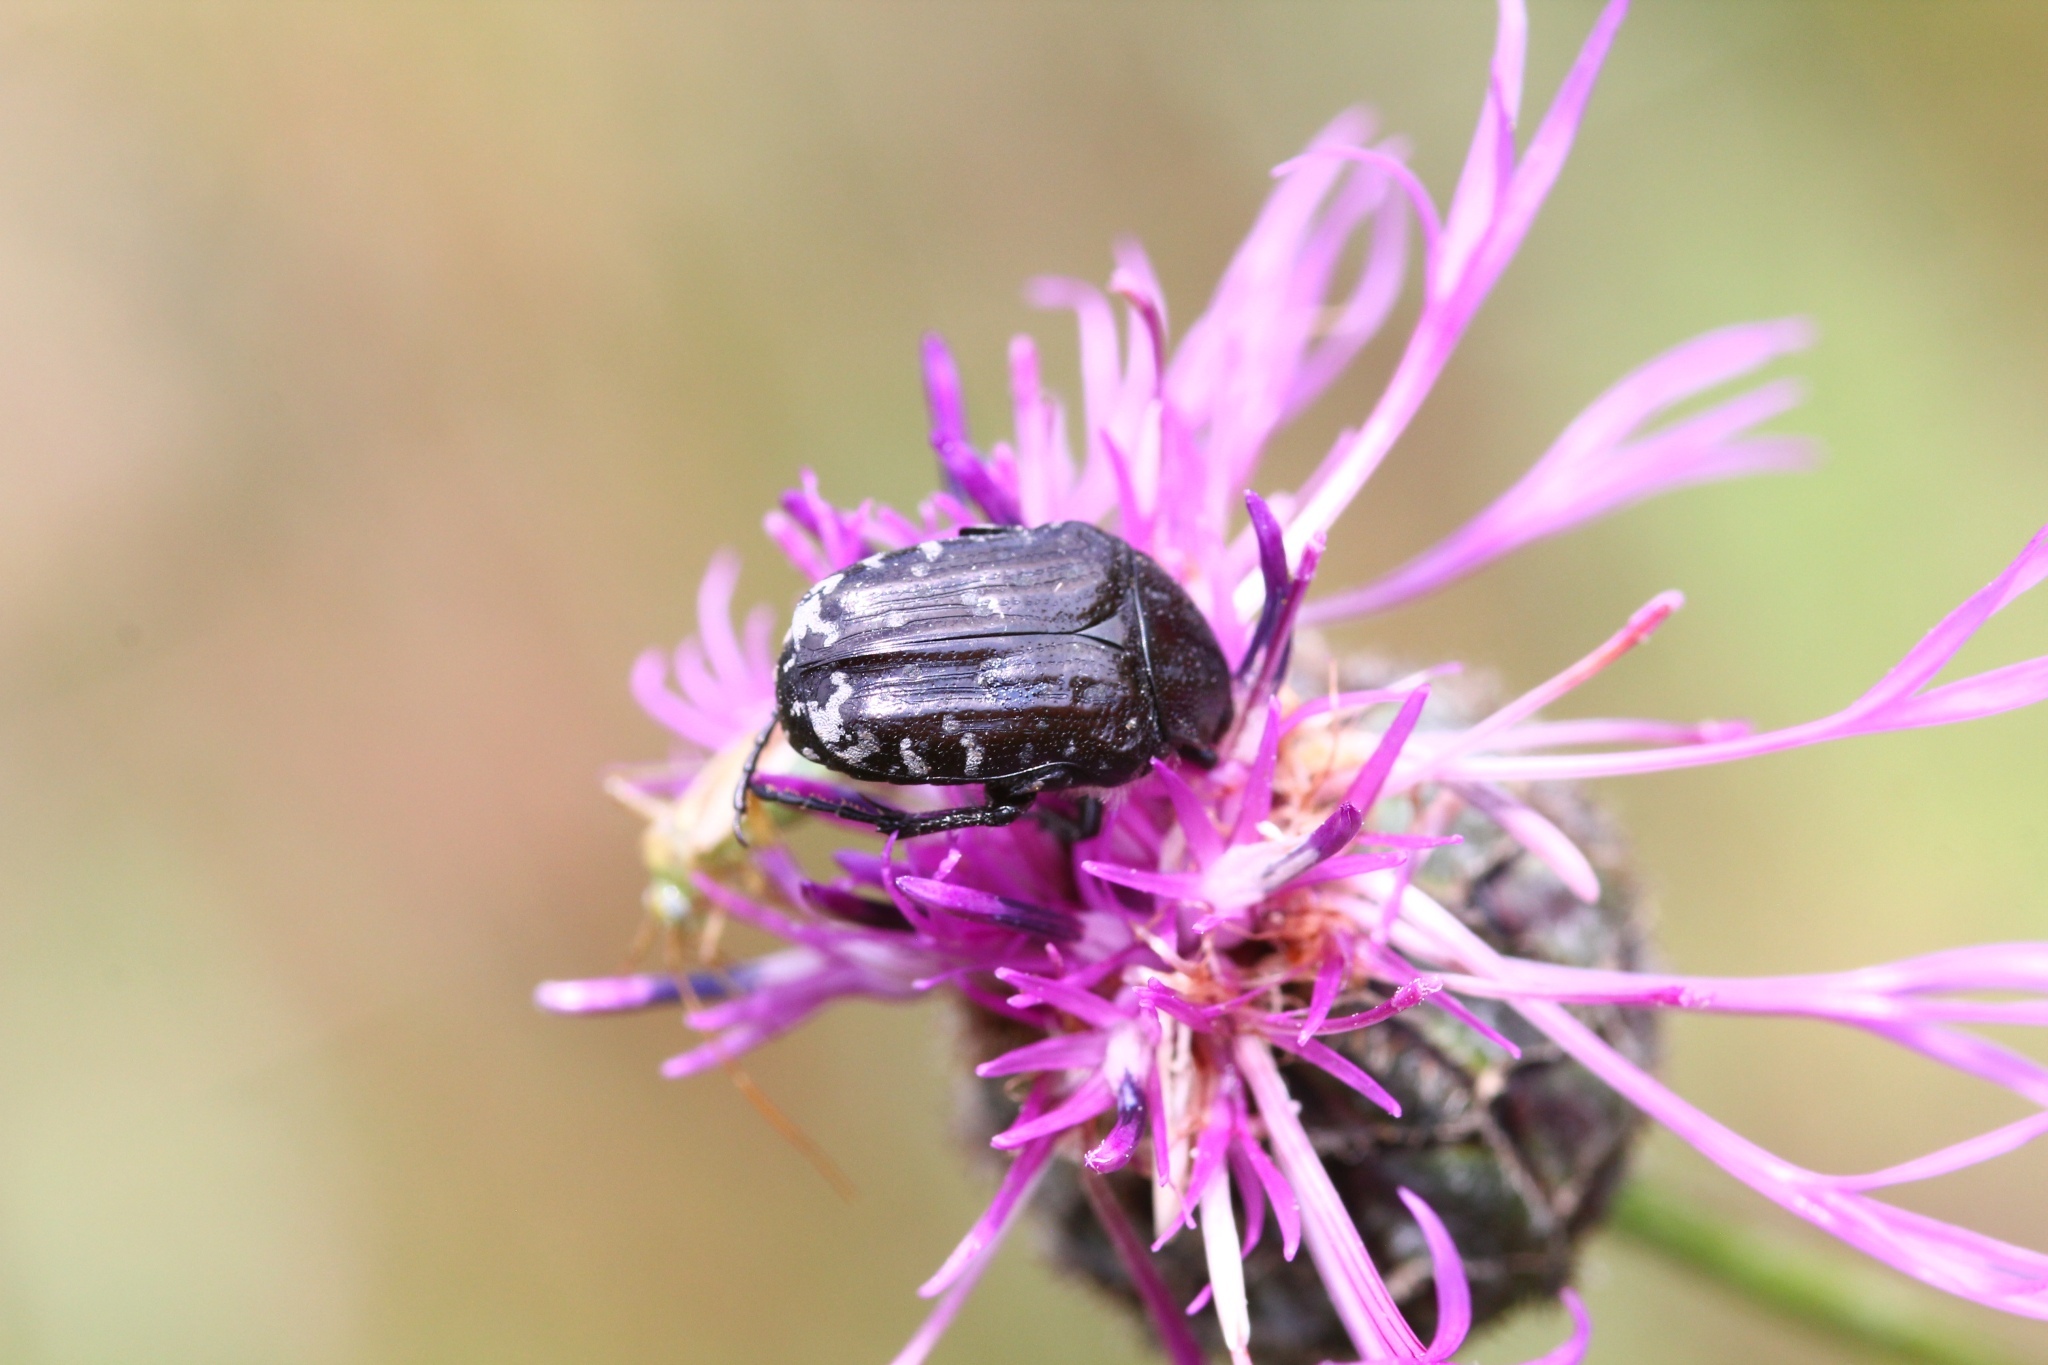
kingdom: Animalia
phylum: Arthropoda
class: Insecta
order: Coleoptera
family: Scarabaeidae
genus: Oxythyrea
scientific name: Oxythyrea funesta
